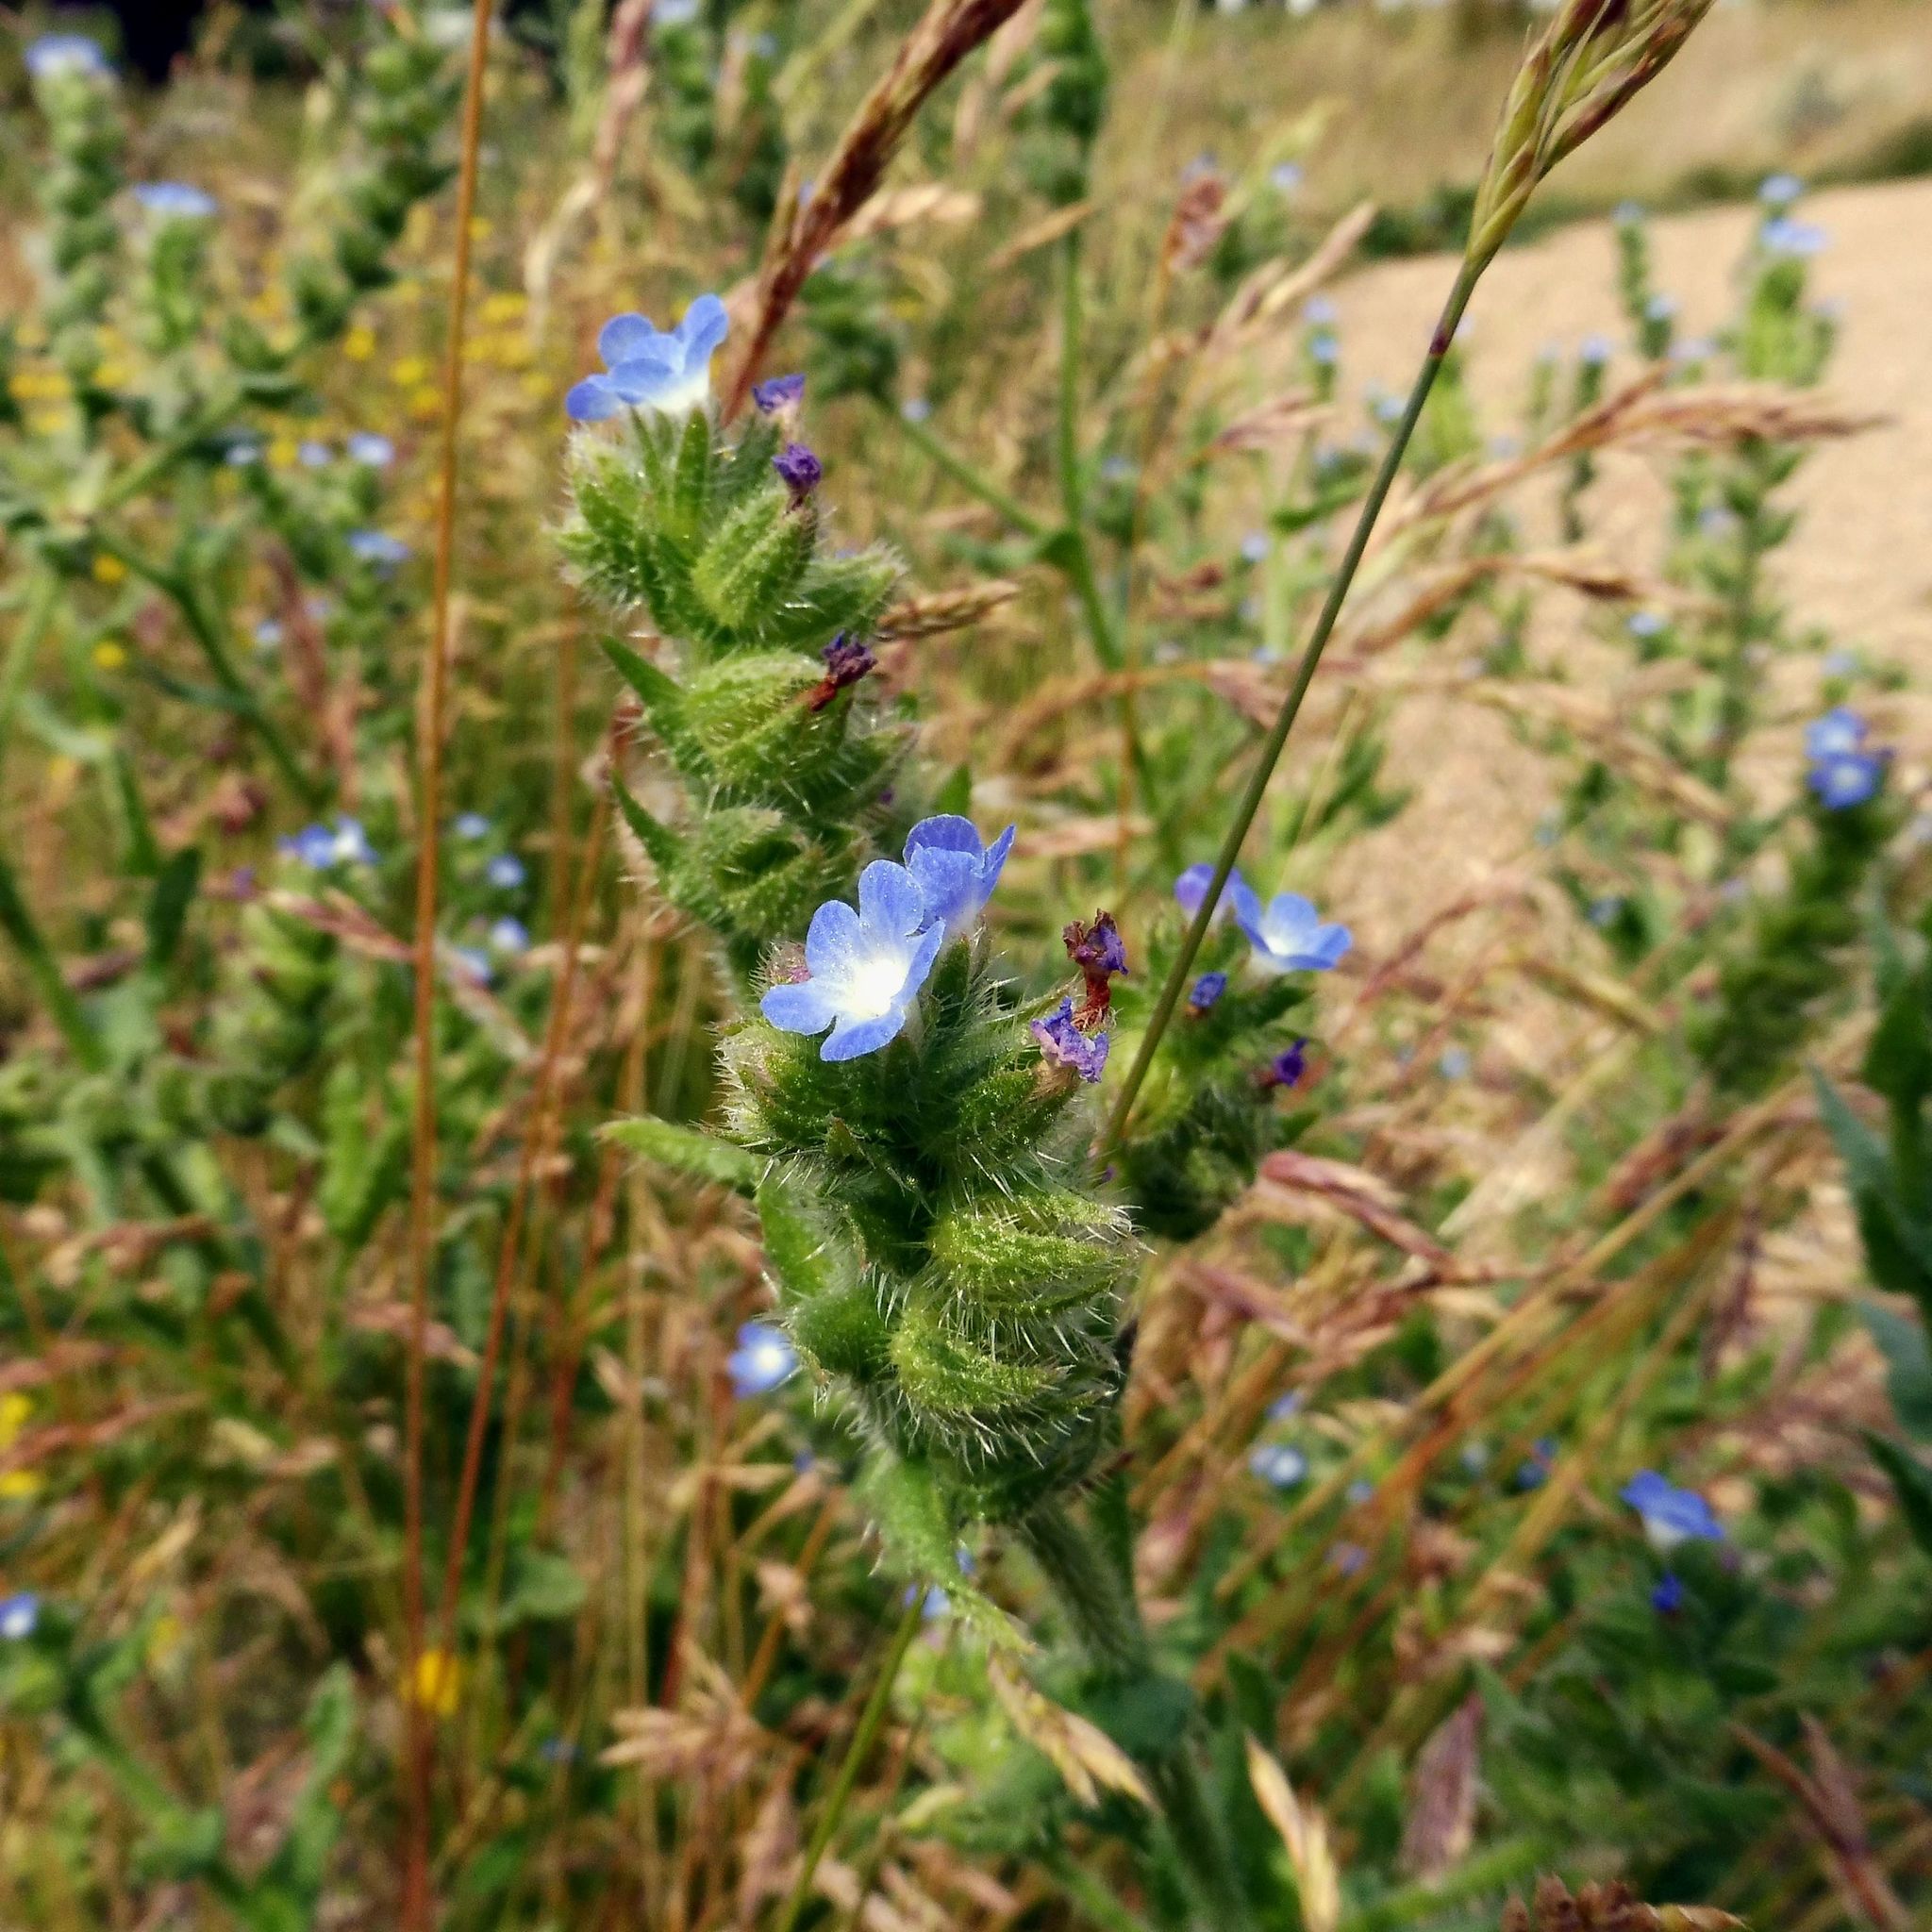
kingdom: Plantae
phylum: Tracheophyta
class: Magnoliopsida
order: Boraginales
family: Boraginaceae
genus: Lycopsis
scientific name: Lycopsis arvensis
